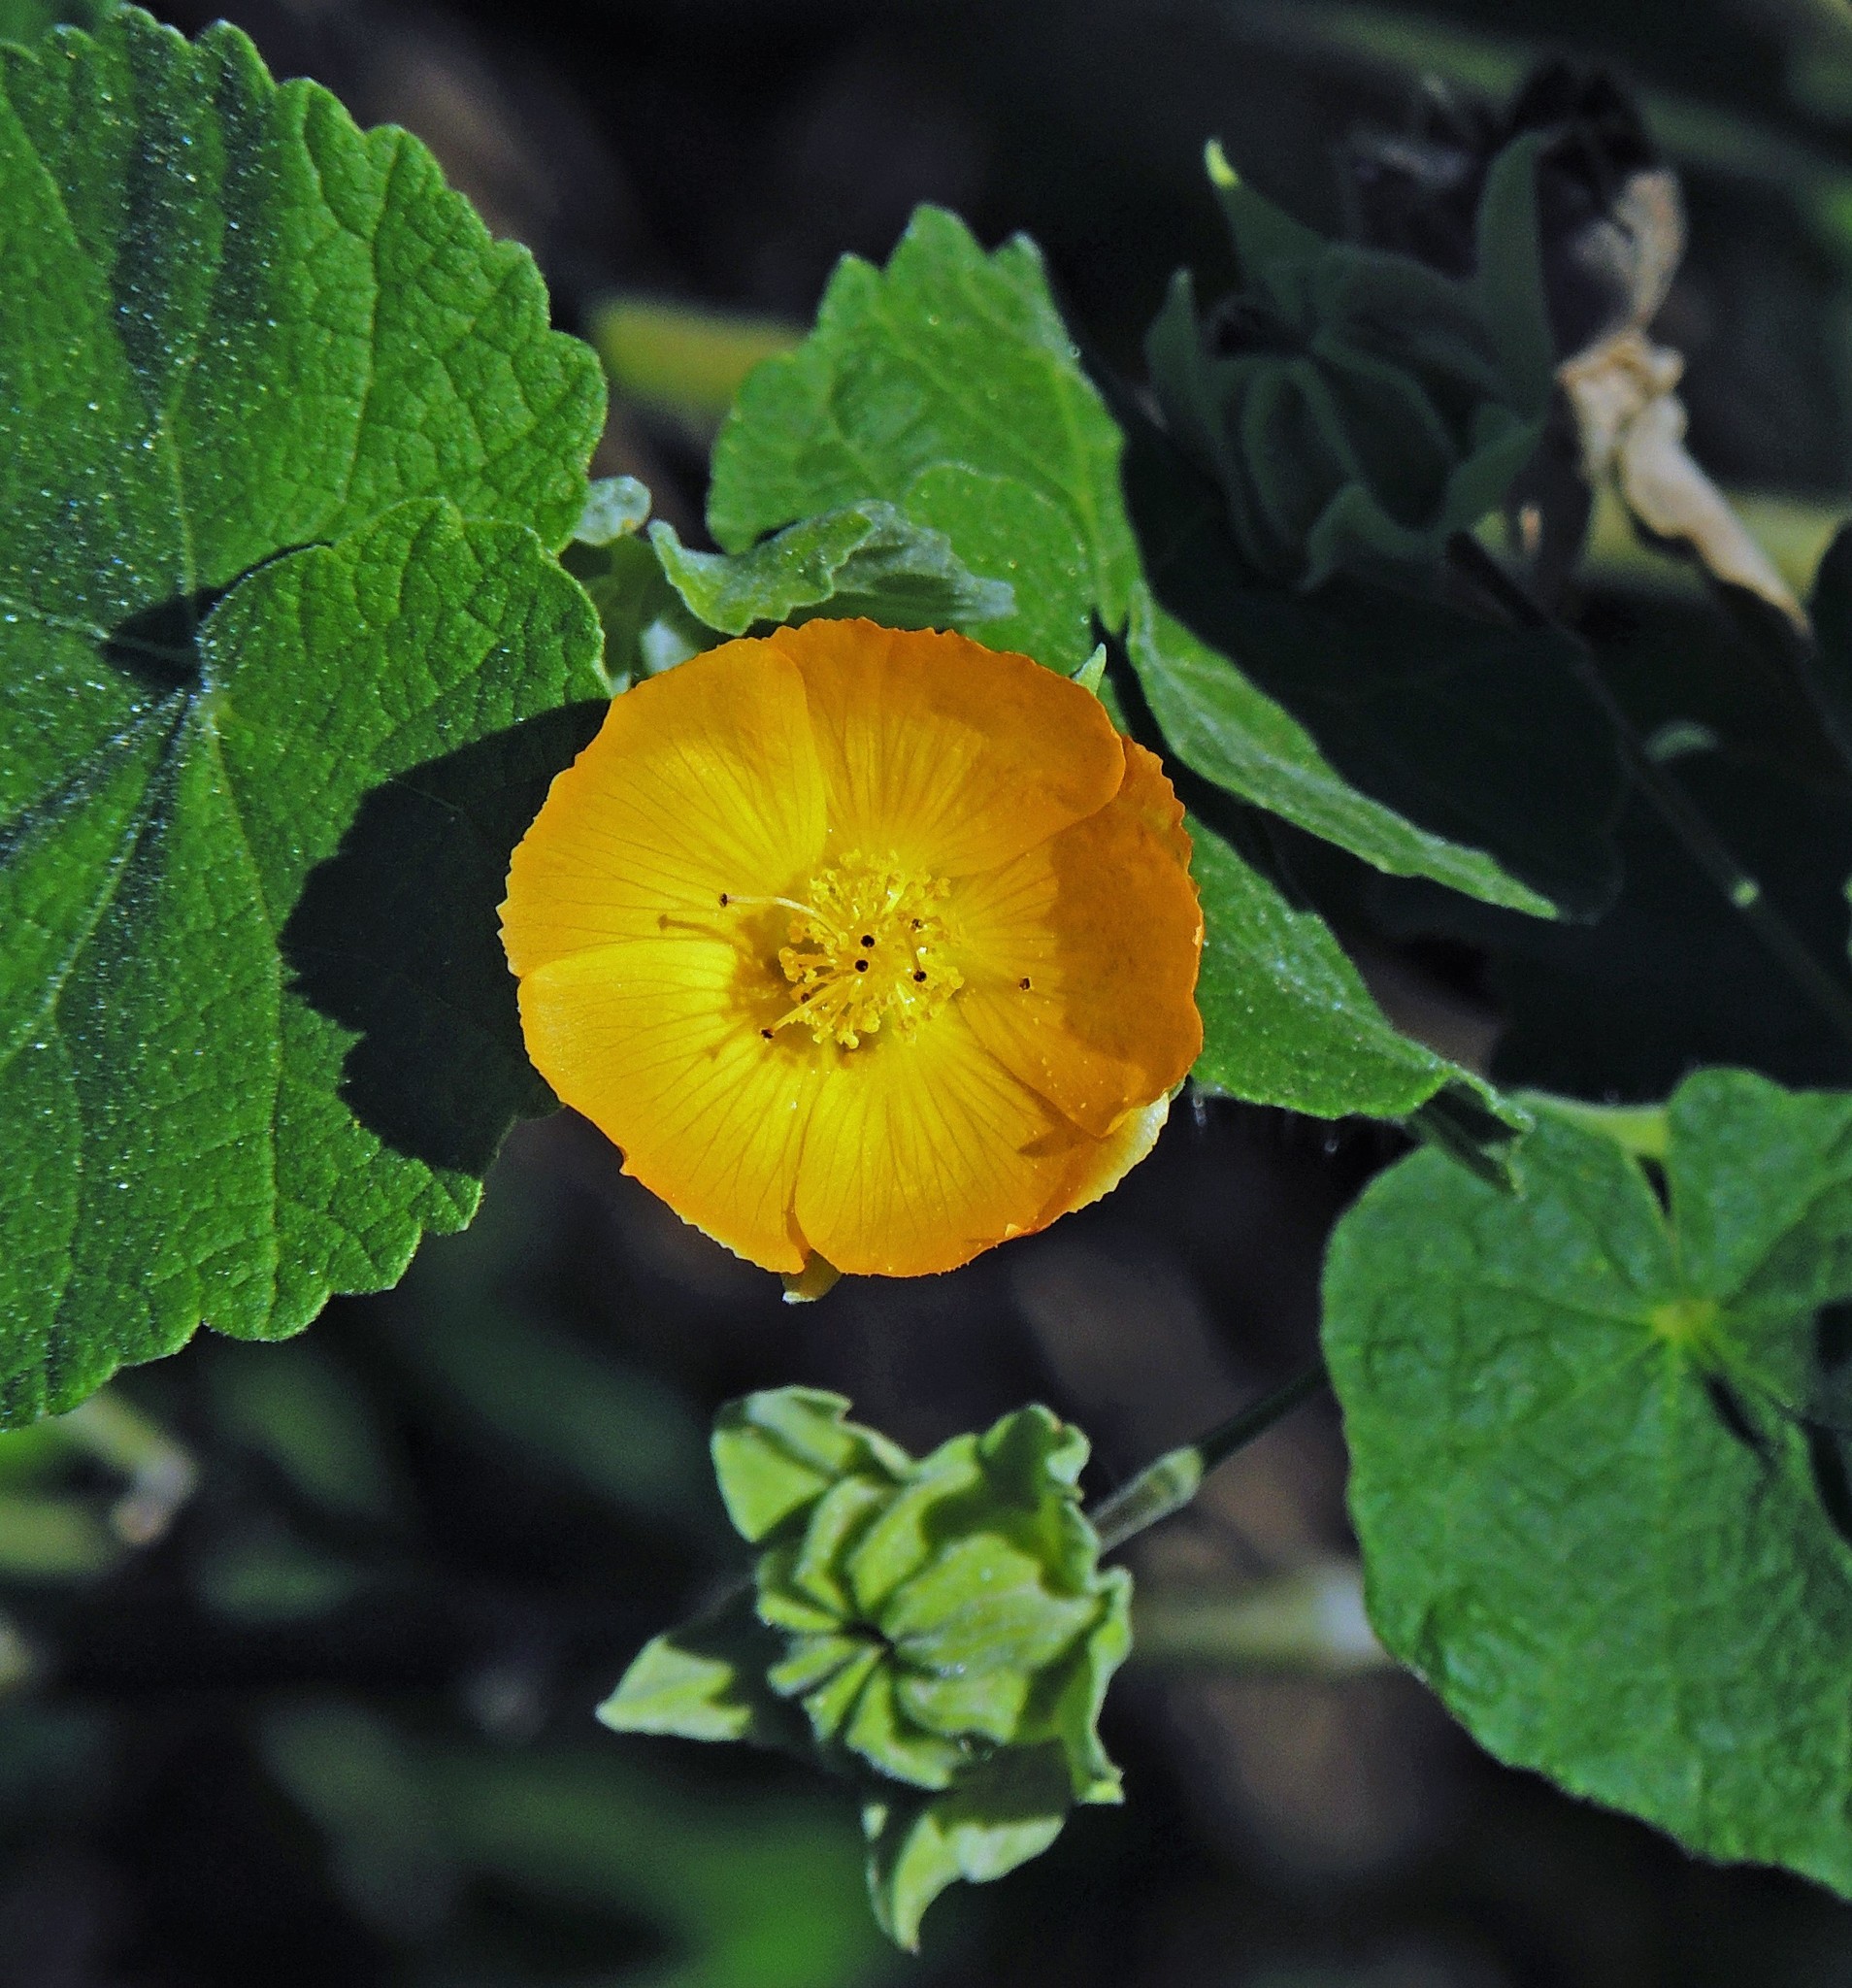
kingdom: Plantae
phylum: Tracheophyta
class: Magnoliopsida
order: Malvales
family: Malvaceae
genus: Abutilon
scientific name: Abutilon grandifolium
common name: Hairy abutilon
